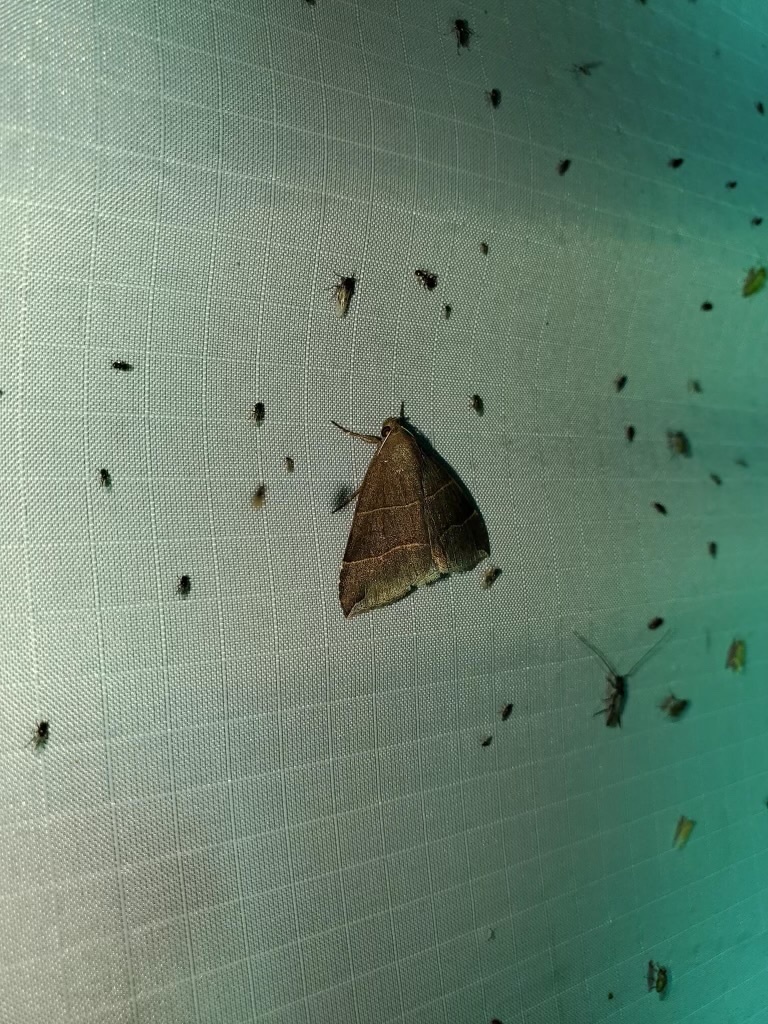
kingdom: Animalia
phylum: Arthropoda
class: Insecta
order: Lepidoptera
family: Erebidae
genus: Parallelia
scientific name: Parallelia bistriaris
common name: Maple looper moth
